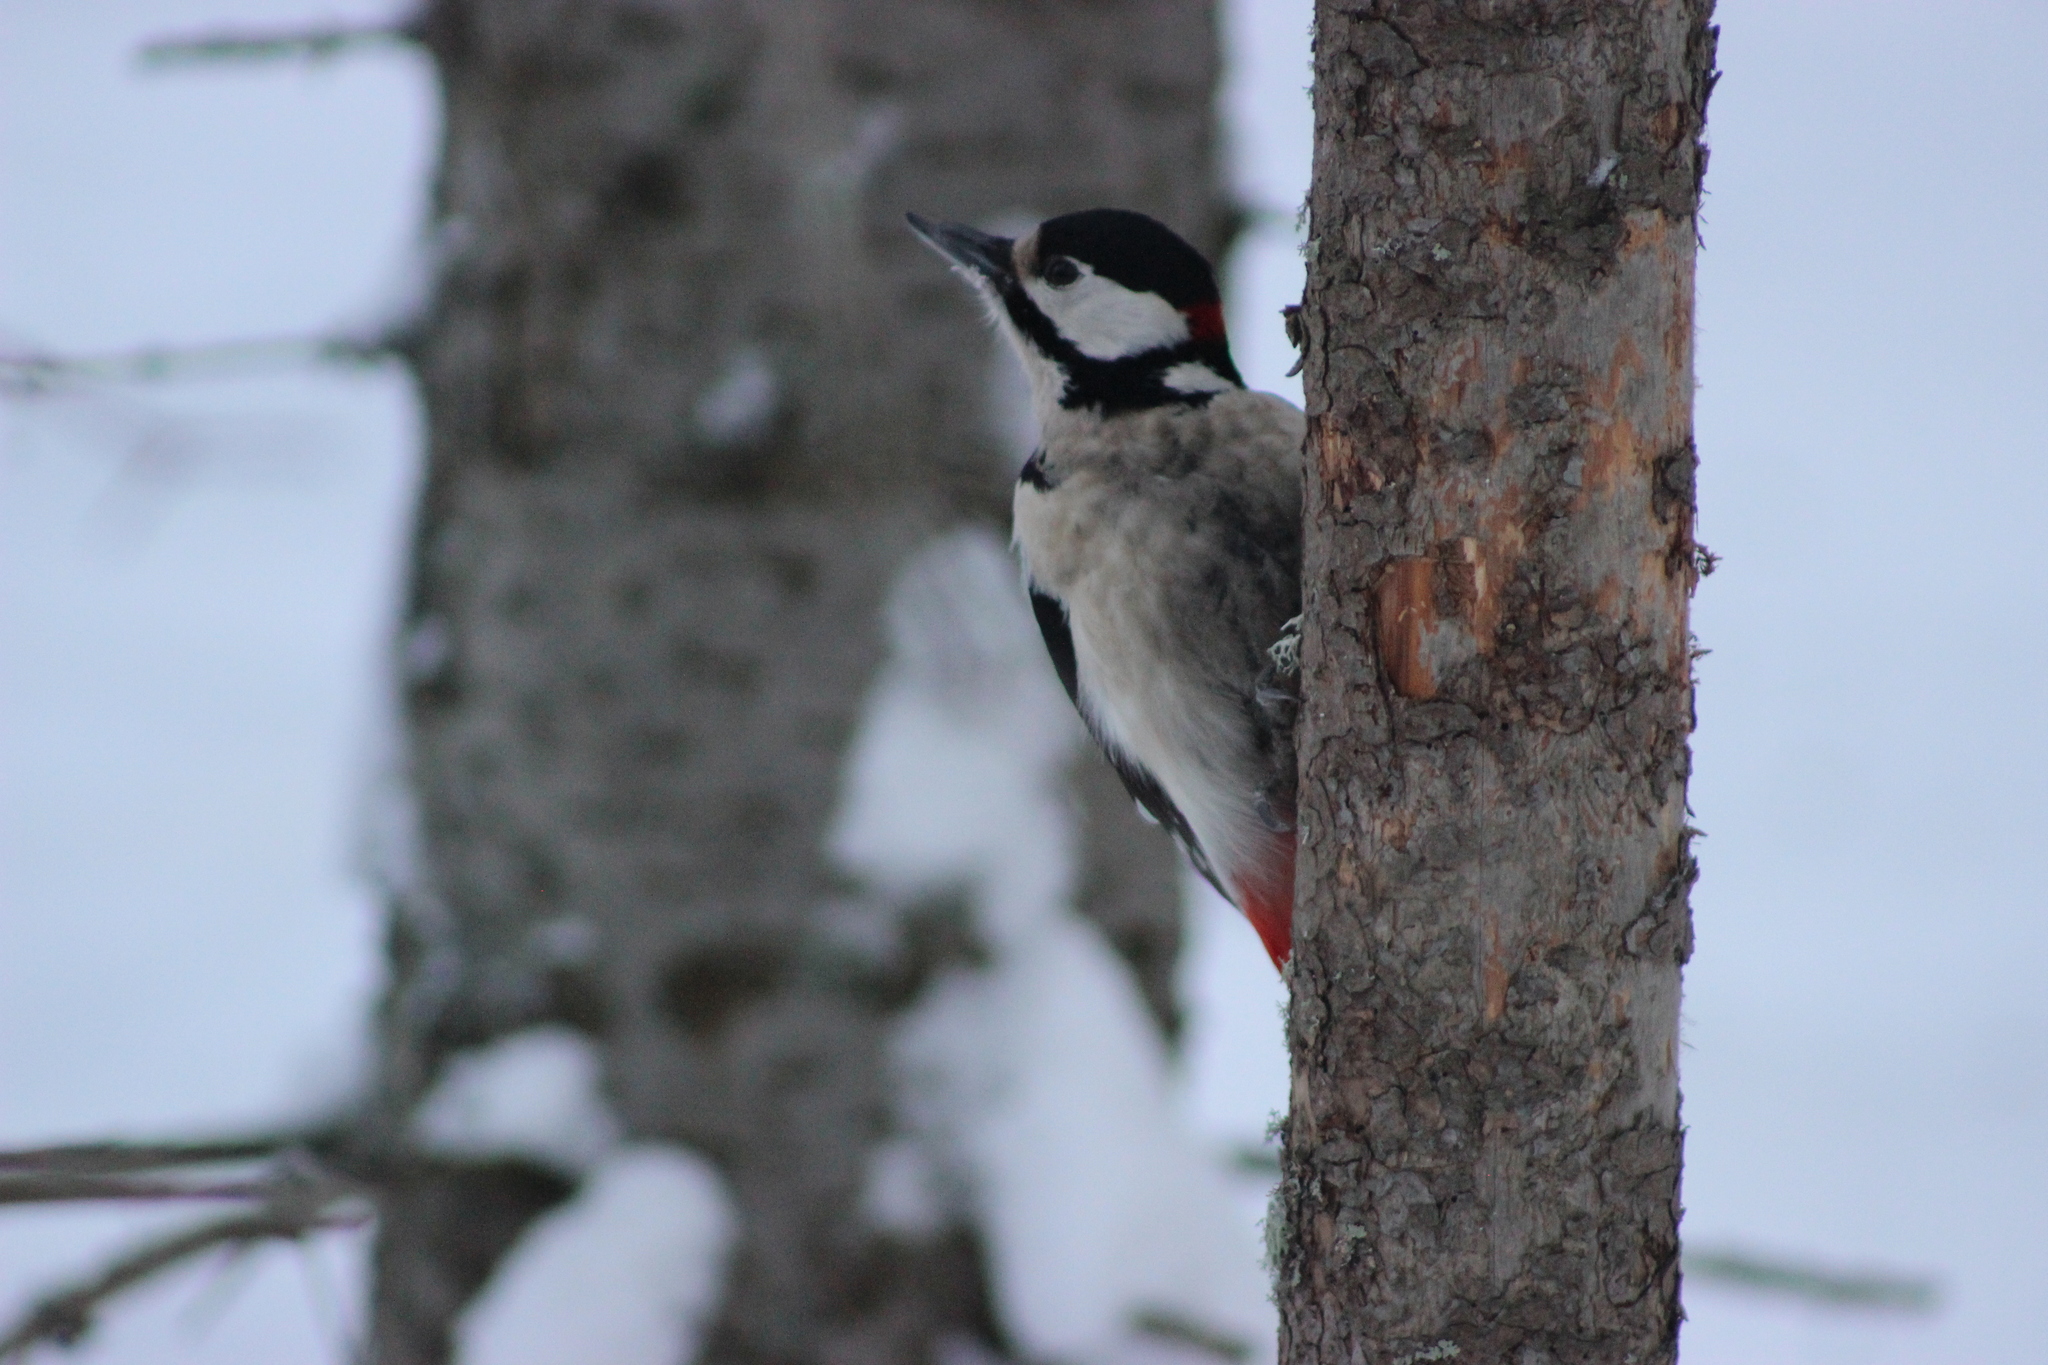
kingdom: Animalia
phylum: Chordata
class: Aves
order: Piciformes
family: Picidae
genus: Dendrocopos
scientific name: Dendrocopos major
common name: Great spotted woodpecker
